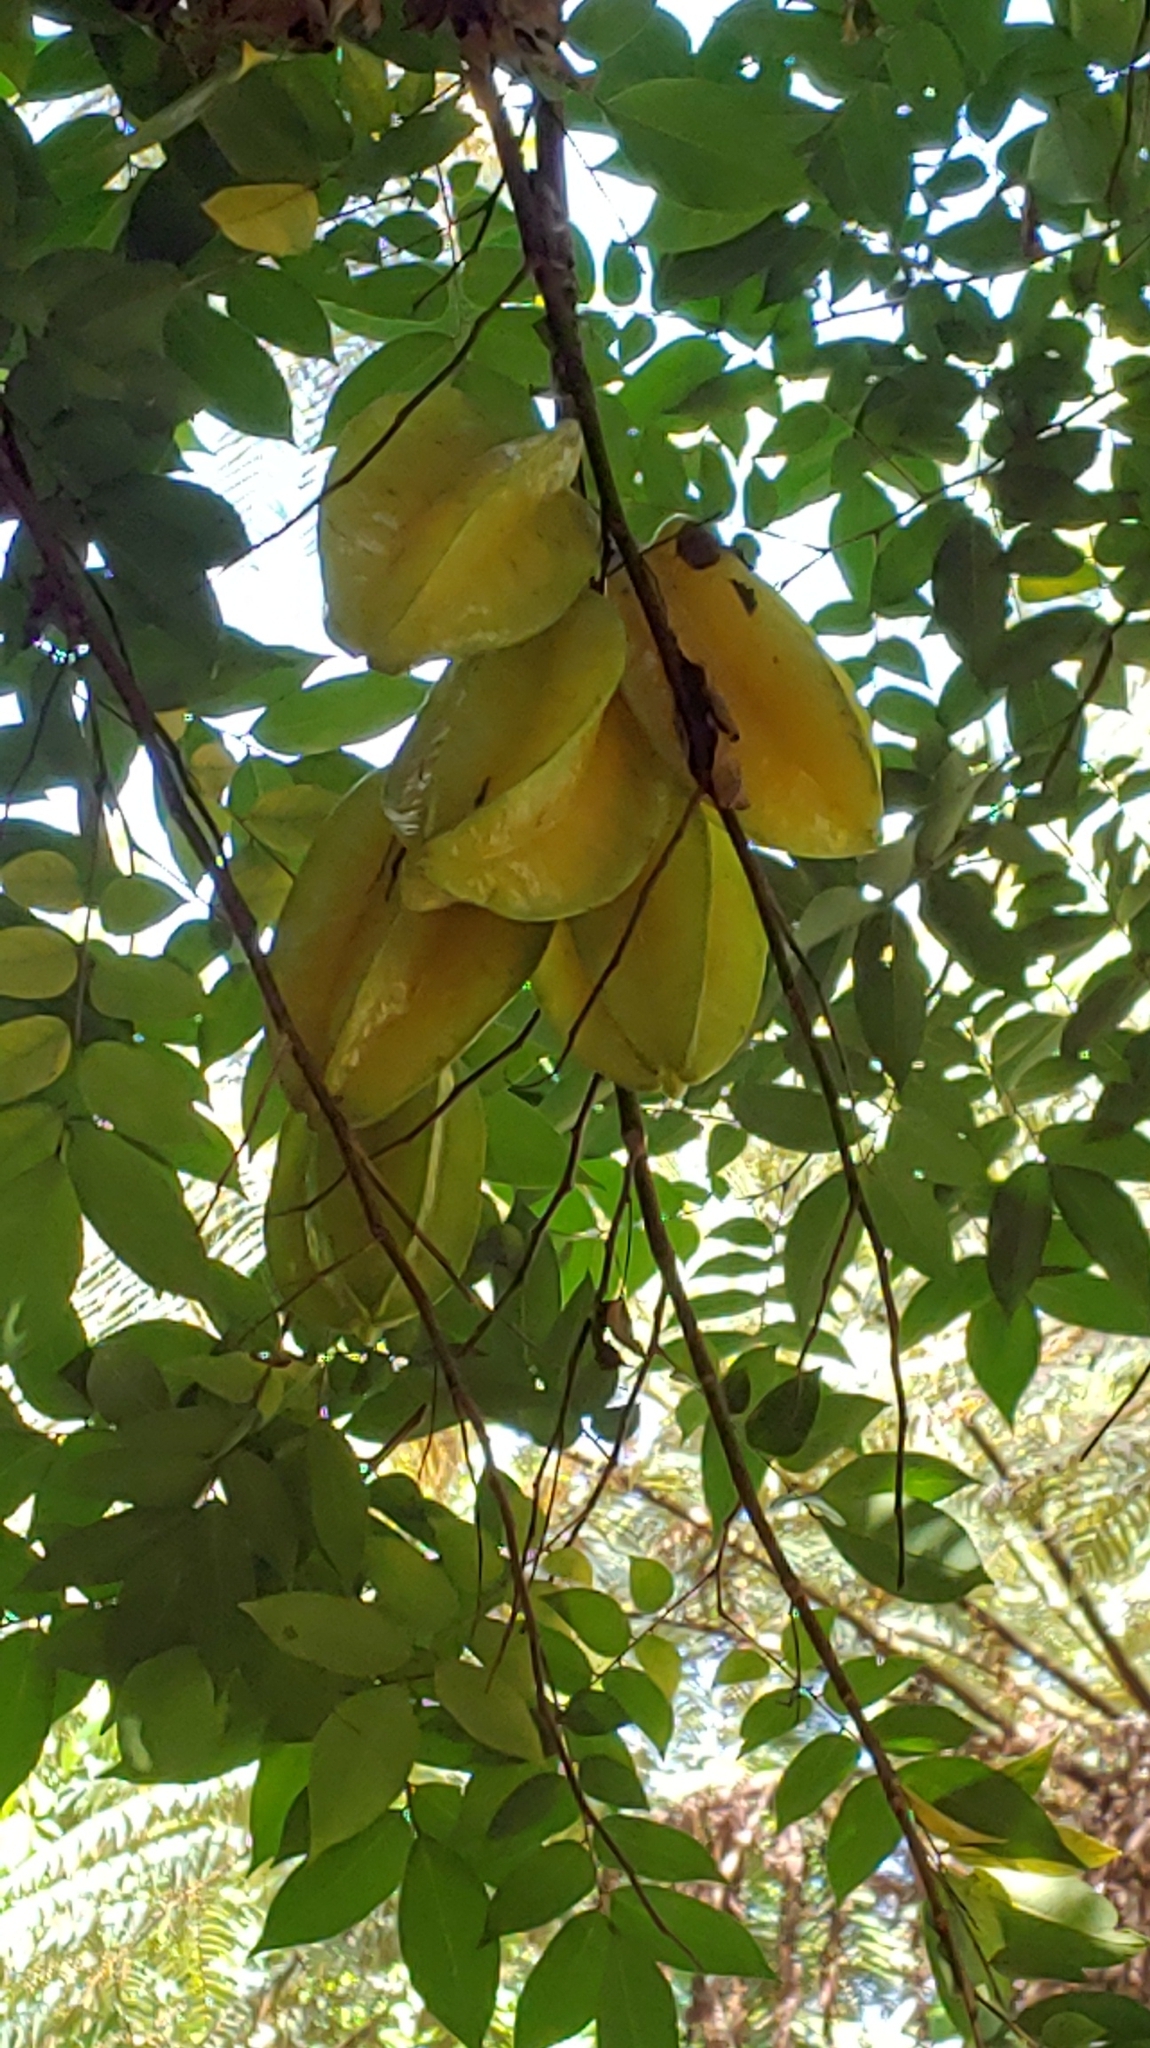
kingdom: Plantae
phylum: Tracheophyta
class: Magnoliopsida
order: Oxalidales
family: Oxalidaceae
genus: Averrhoa
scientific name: Averrhoa carambola
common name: Blimbing
